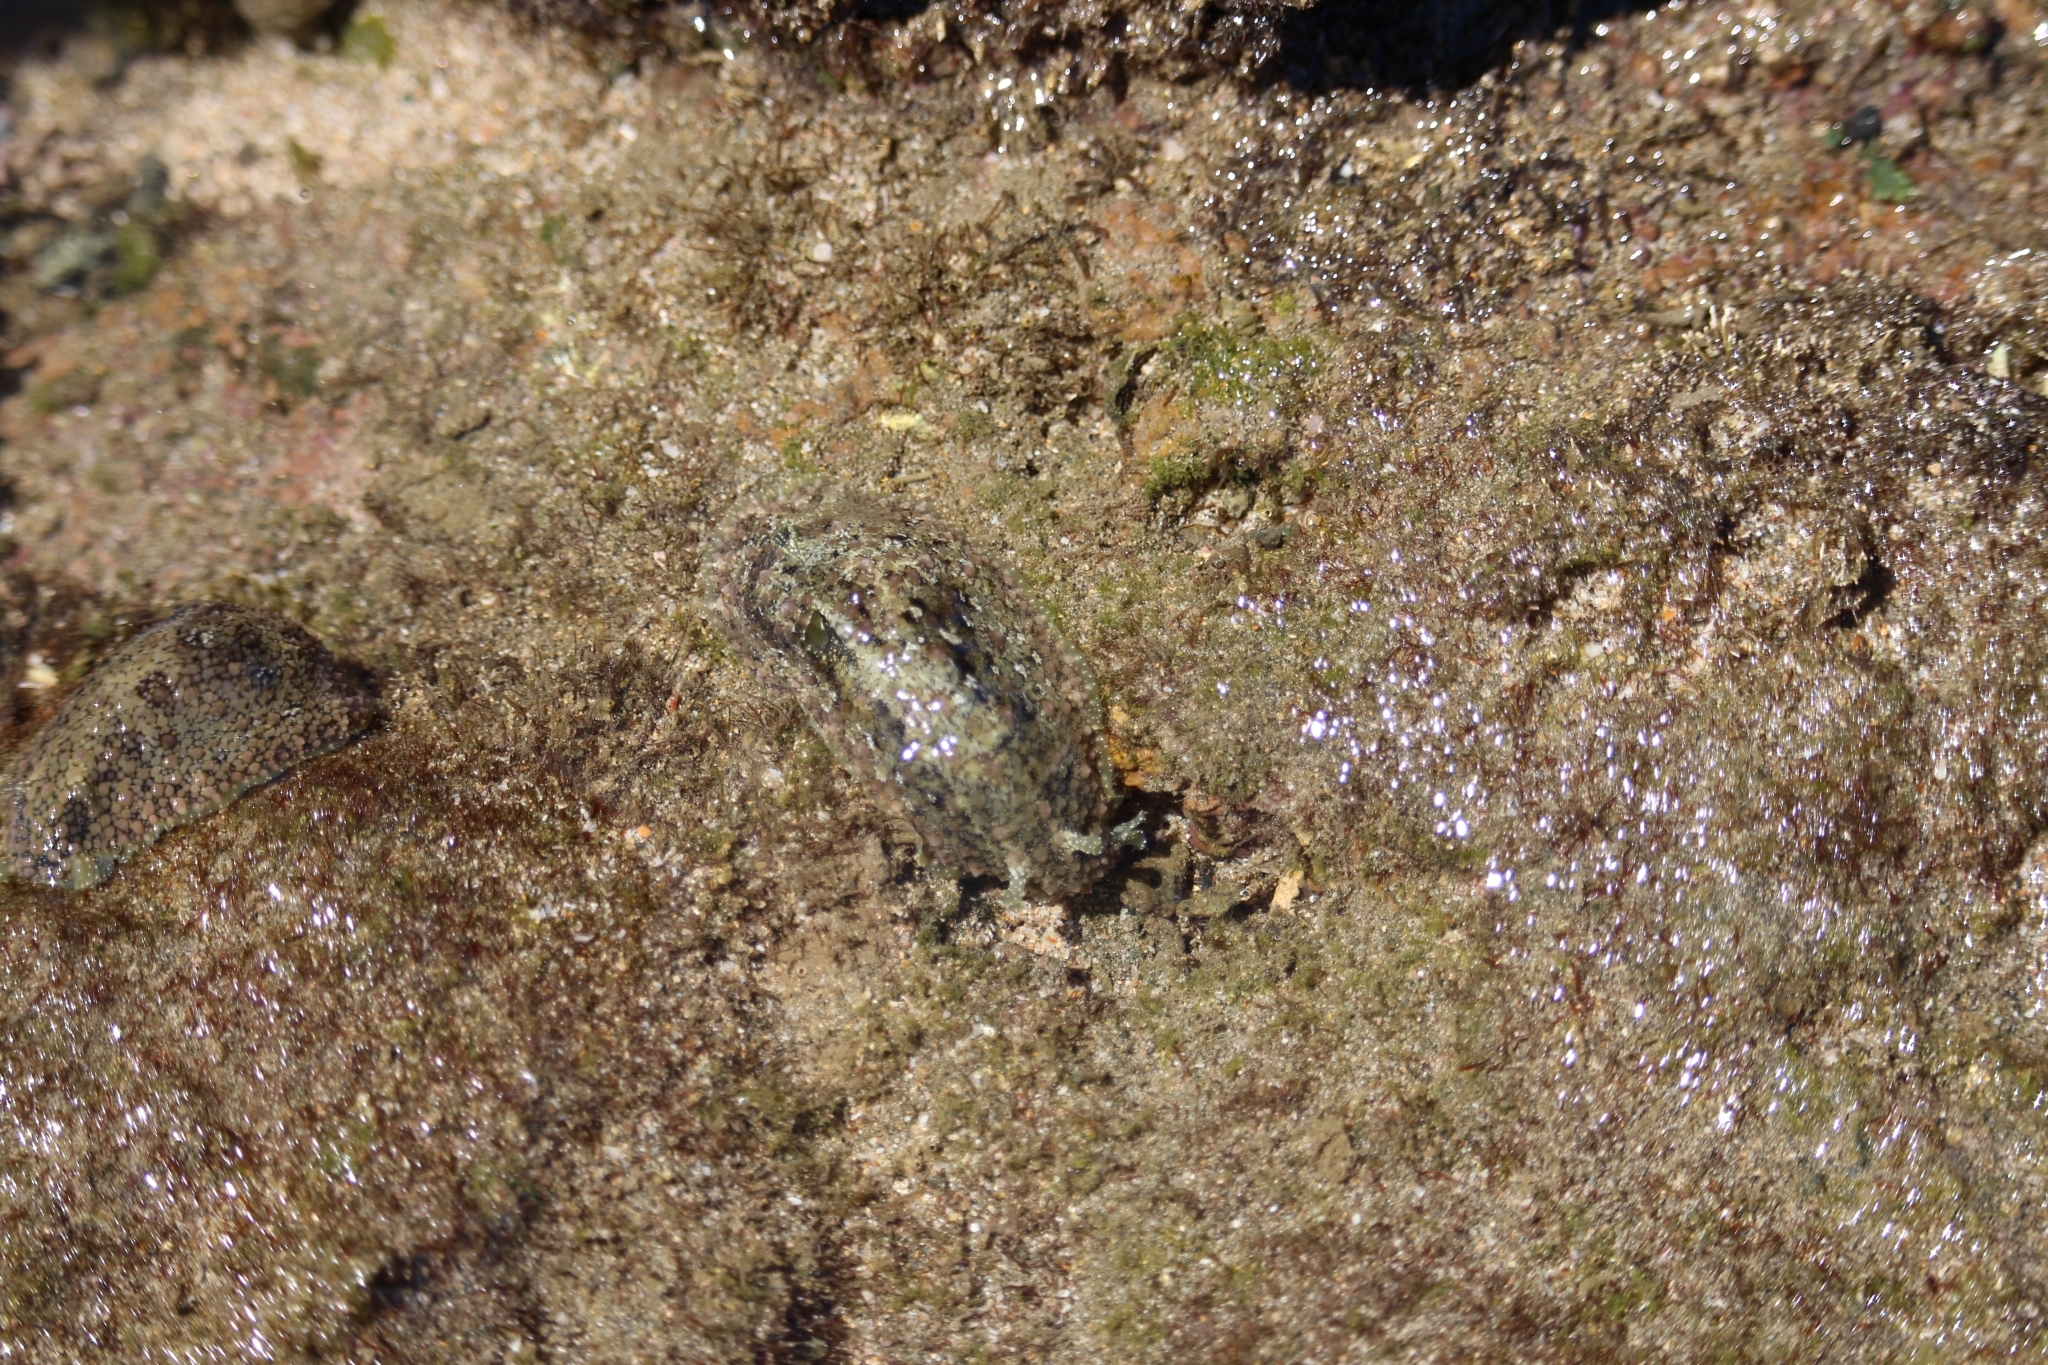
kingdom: Animalia
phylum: Mollusca
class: Gastropoda
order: Aplysiida
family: Aplysiidae
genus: Dolabrifera
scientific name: Dolabrifera nicaraguana
